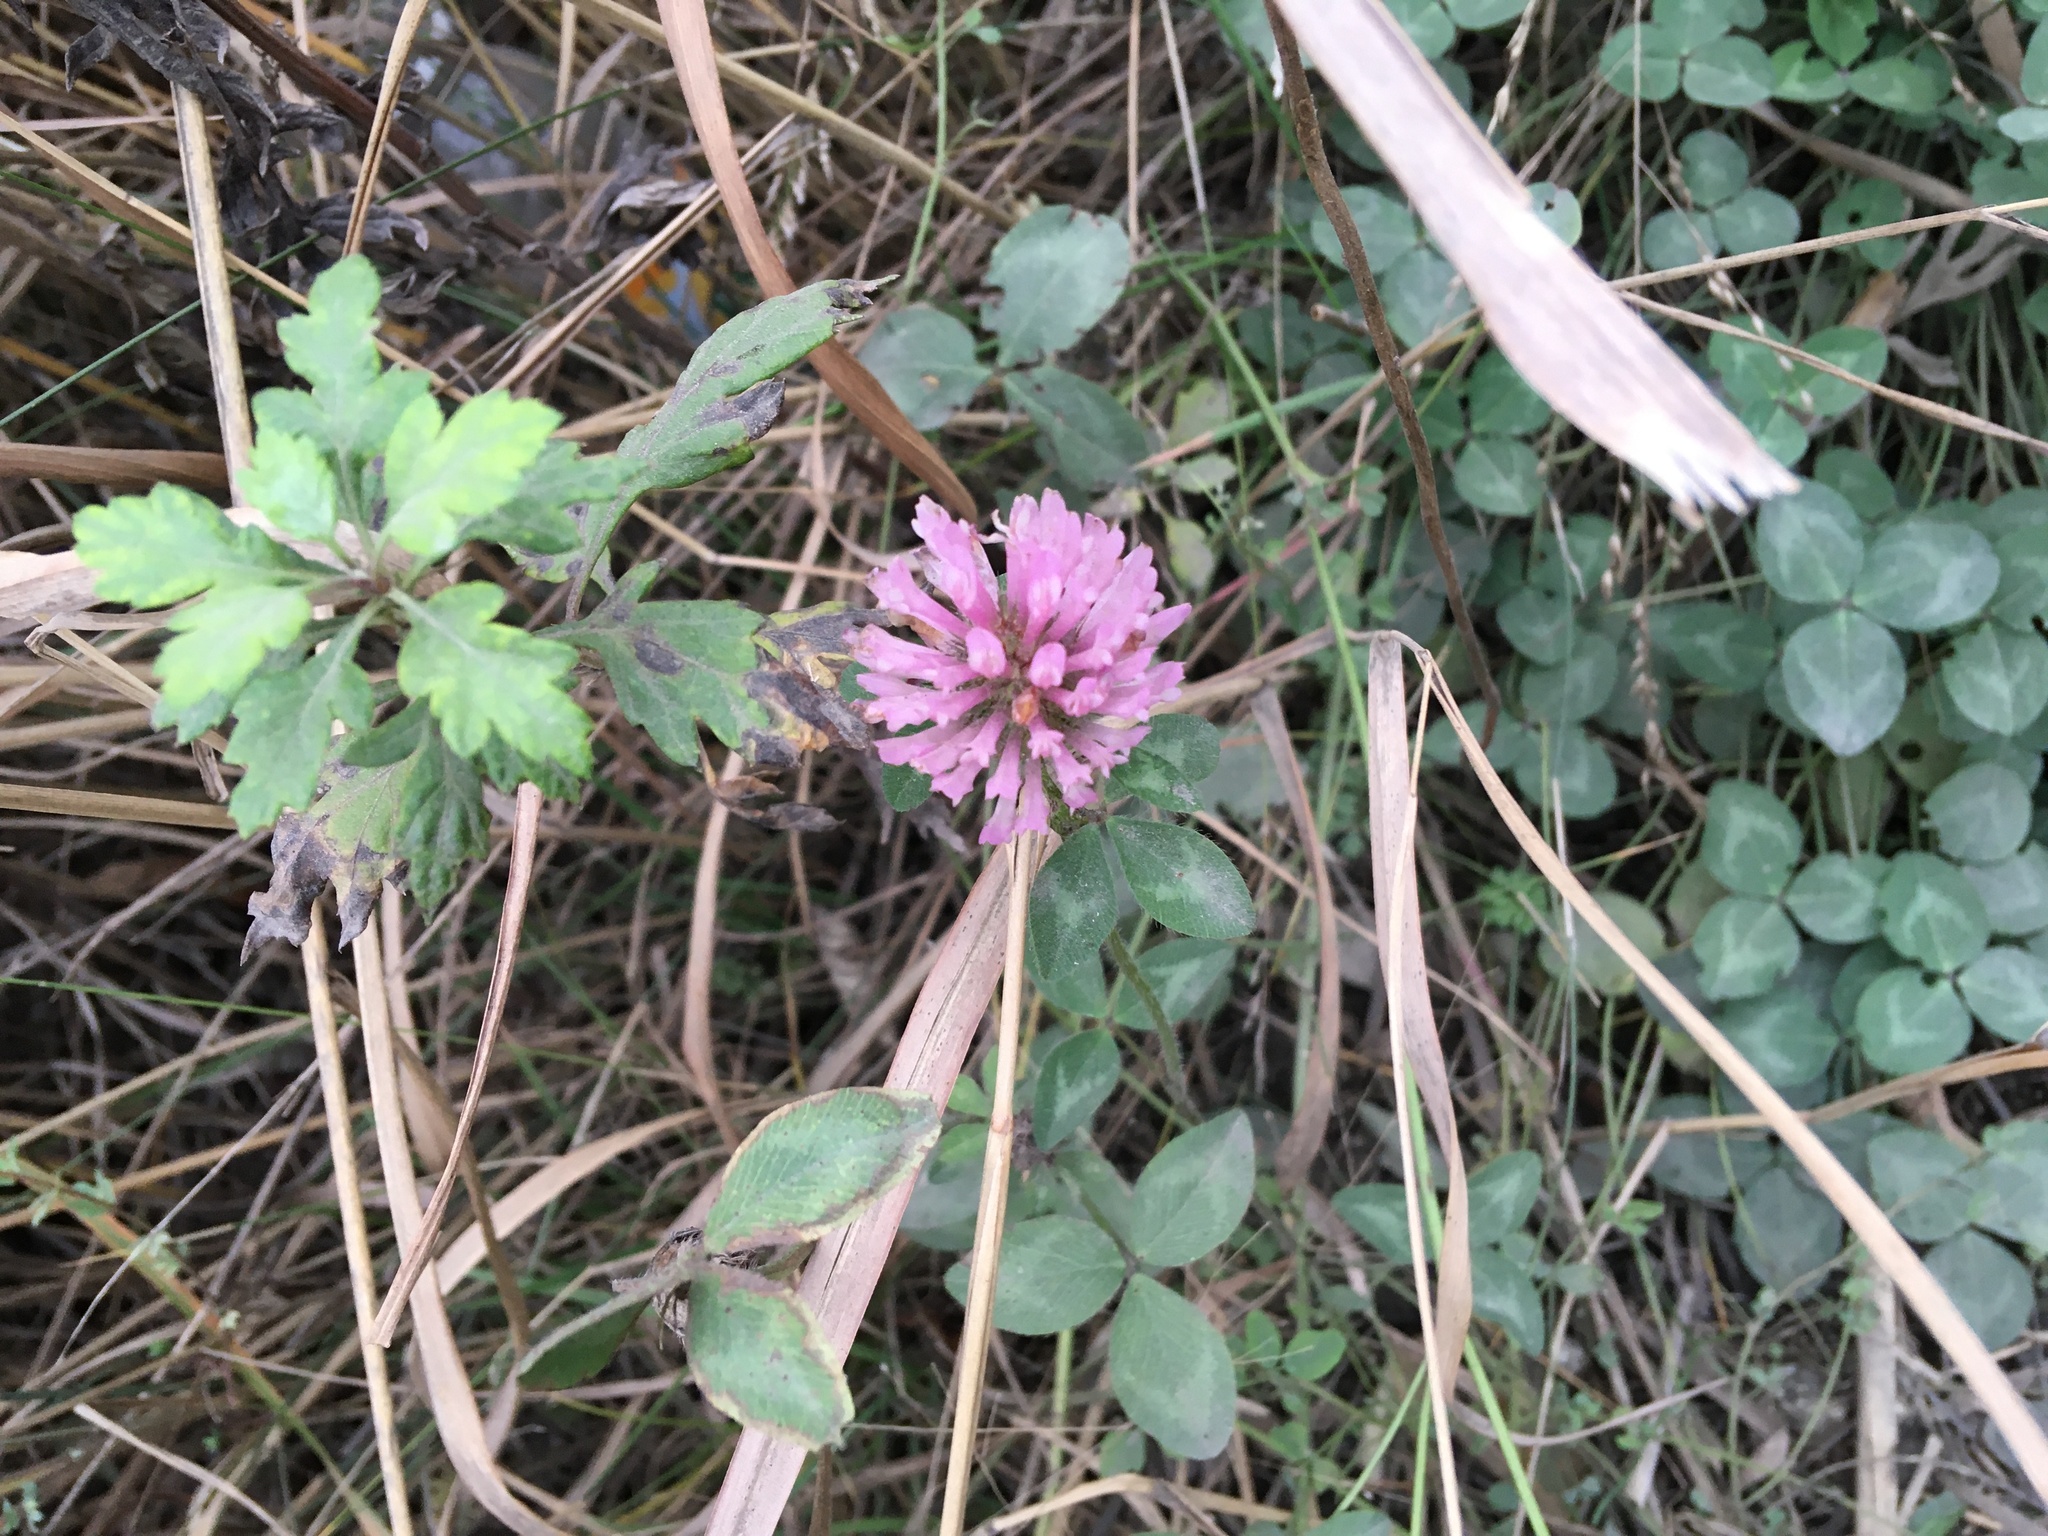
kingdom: Plantae
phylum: Tracheophyta
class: Magnoliopsida
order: Fabales
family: Fabaceae
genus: Trifolium
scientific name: Trifolium pratense
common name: Red clover
